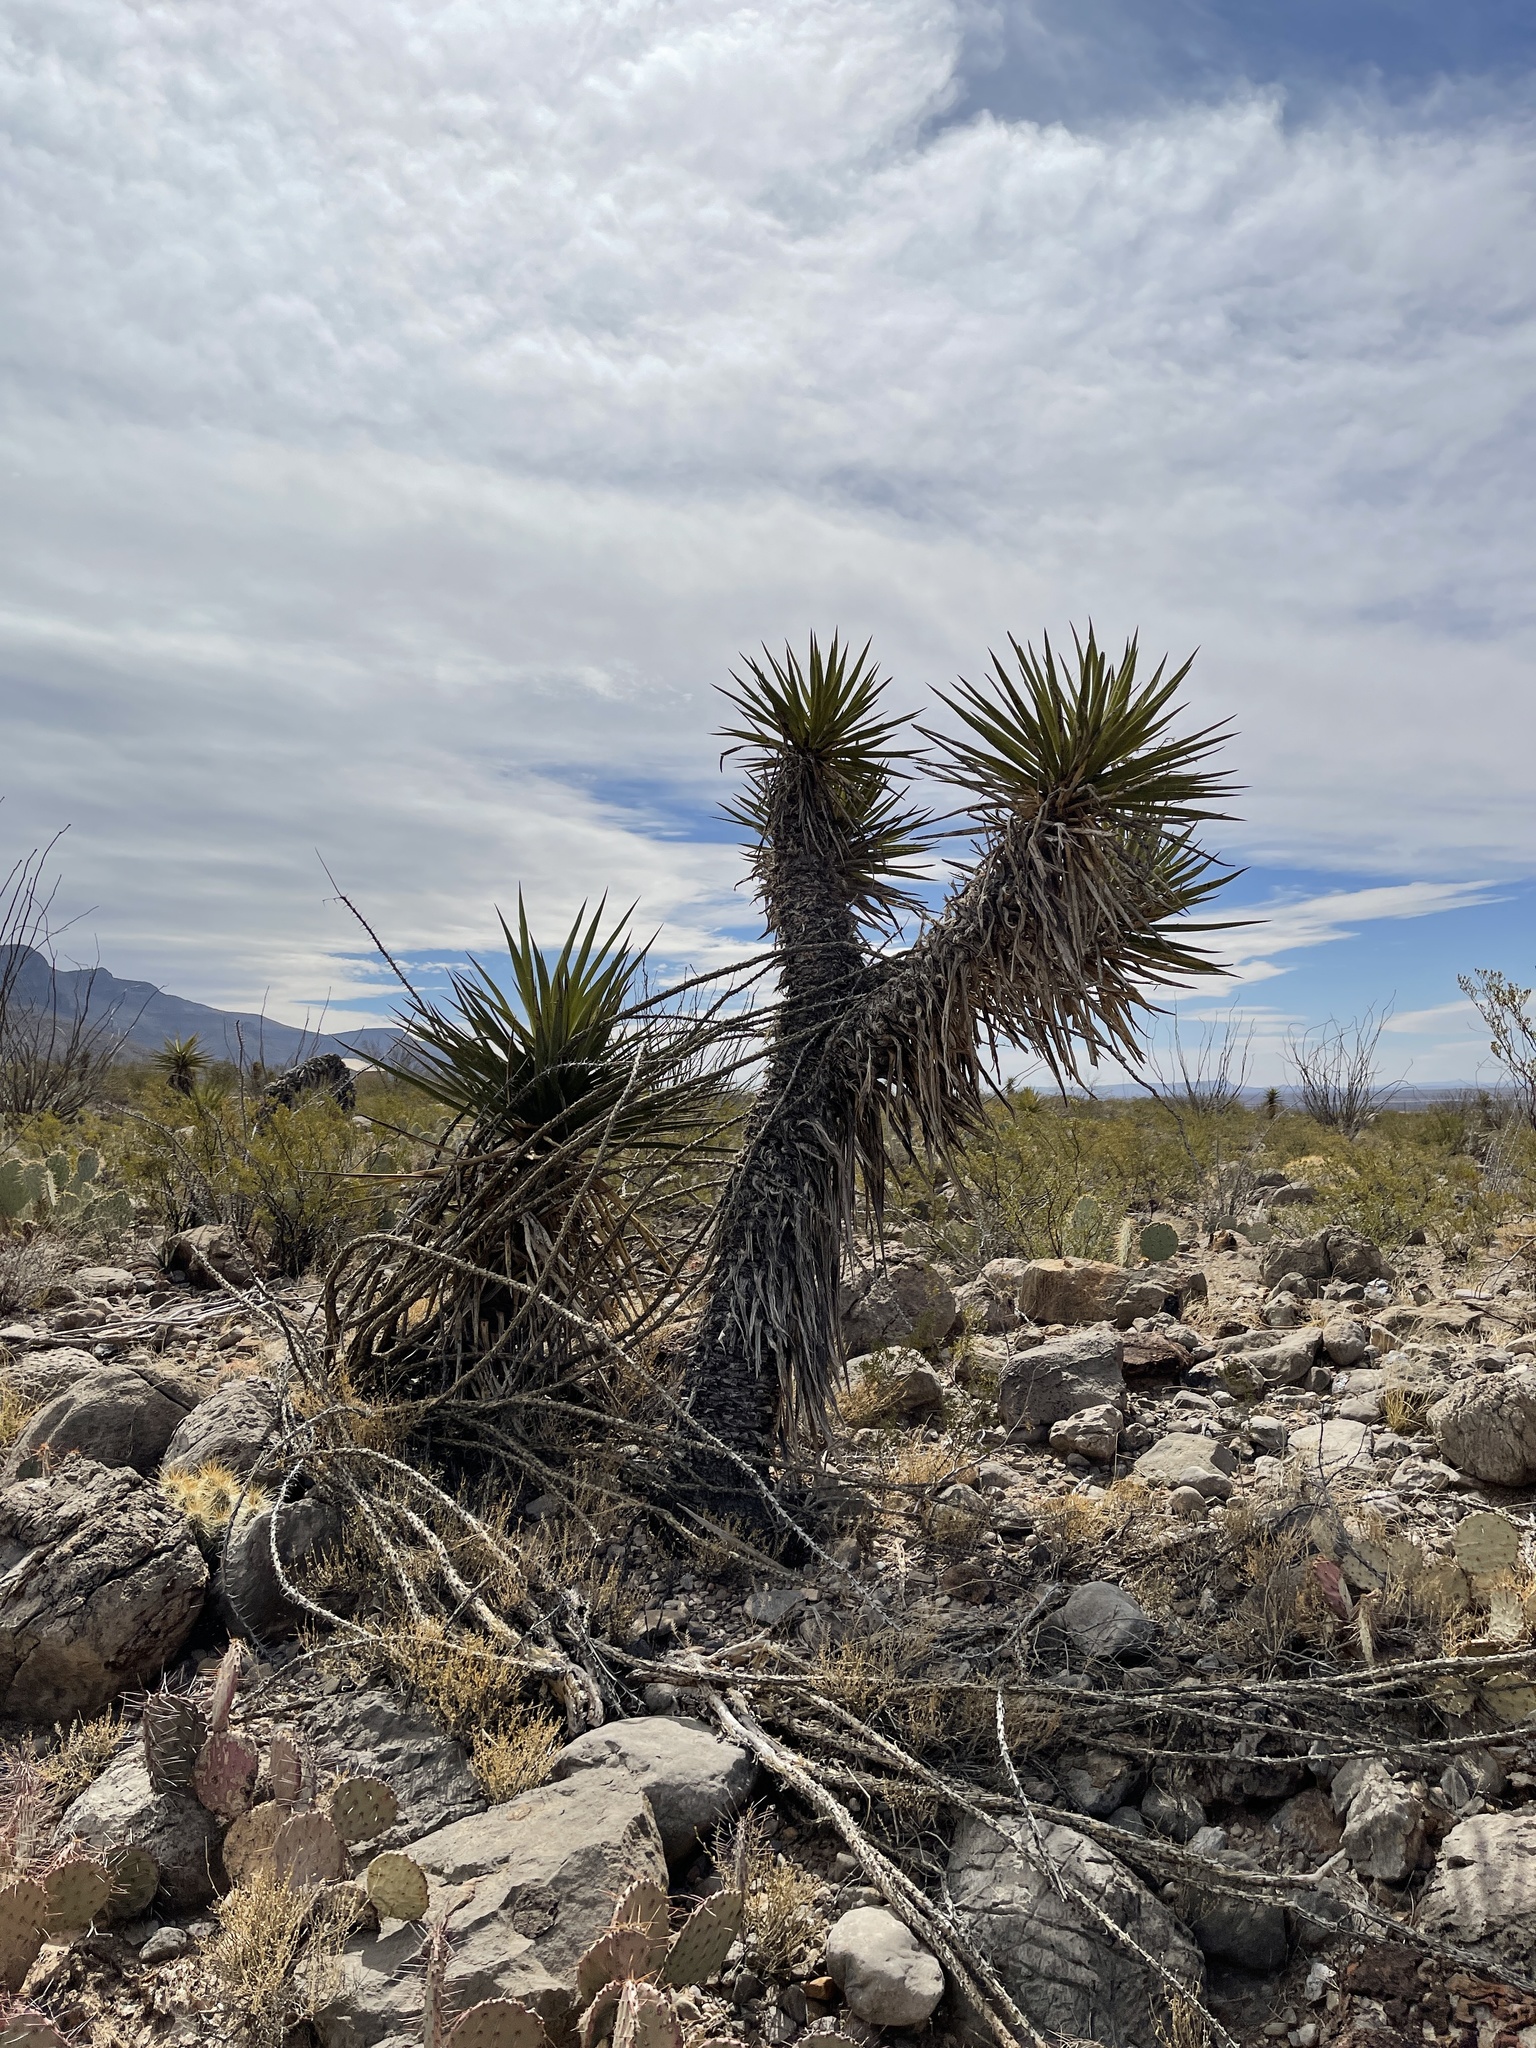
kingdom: Plantae
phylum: Tracheophyta
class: Liliopsida
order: Asparagales
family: Asparagaceae
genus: Yucca
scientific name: Yucca treculiana
